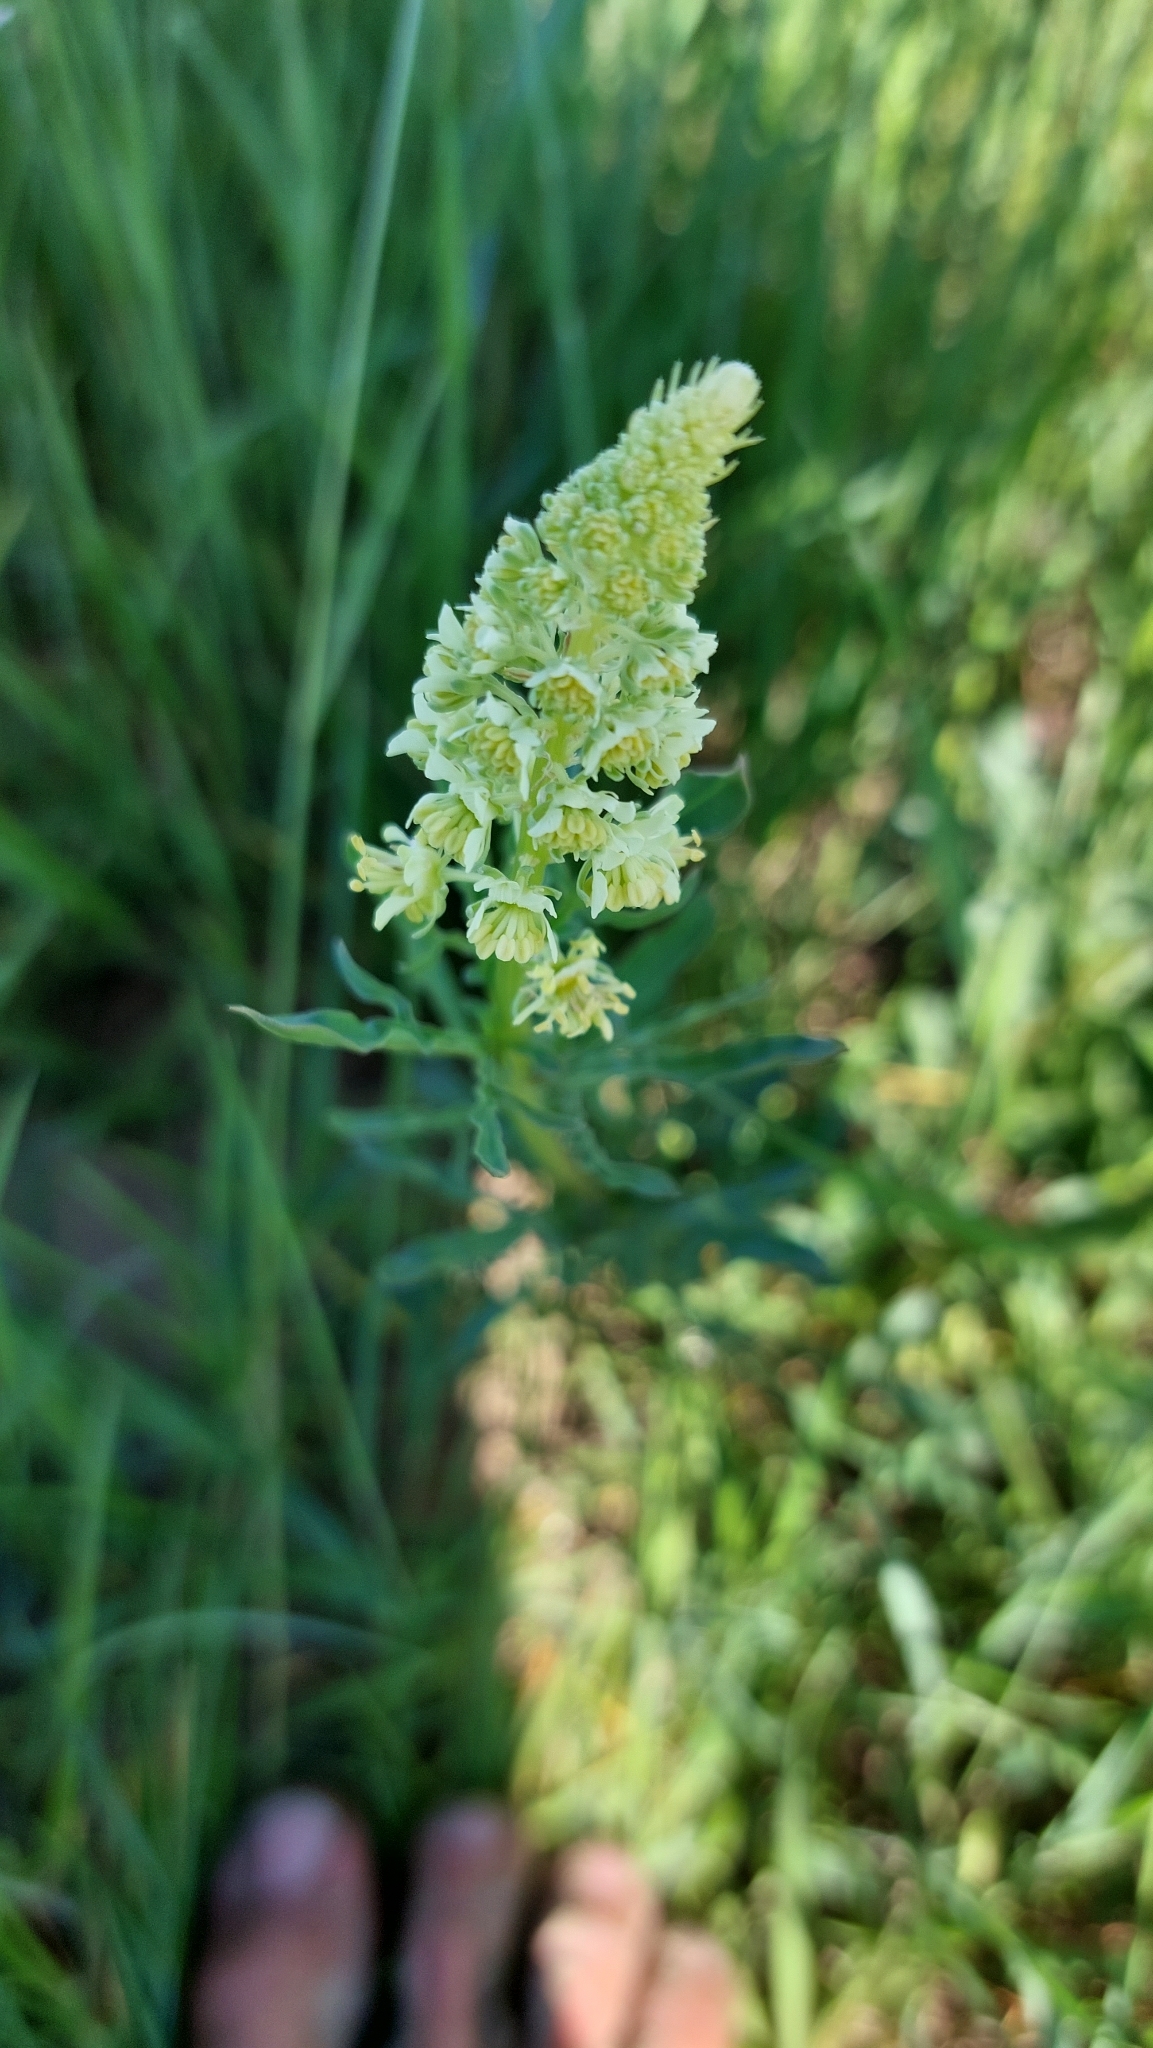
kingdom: Plantae
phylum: Tracheophyta
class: Magnoliopsida
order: Brassicales
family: Resedaceae
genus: Reseda
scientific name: Reseda lutea
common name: Wild mignonette
